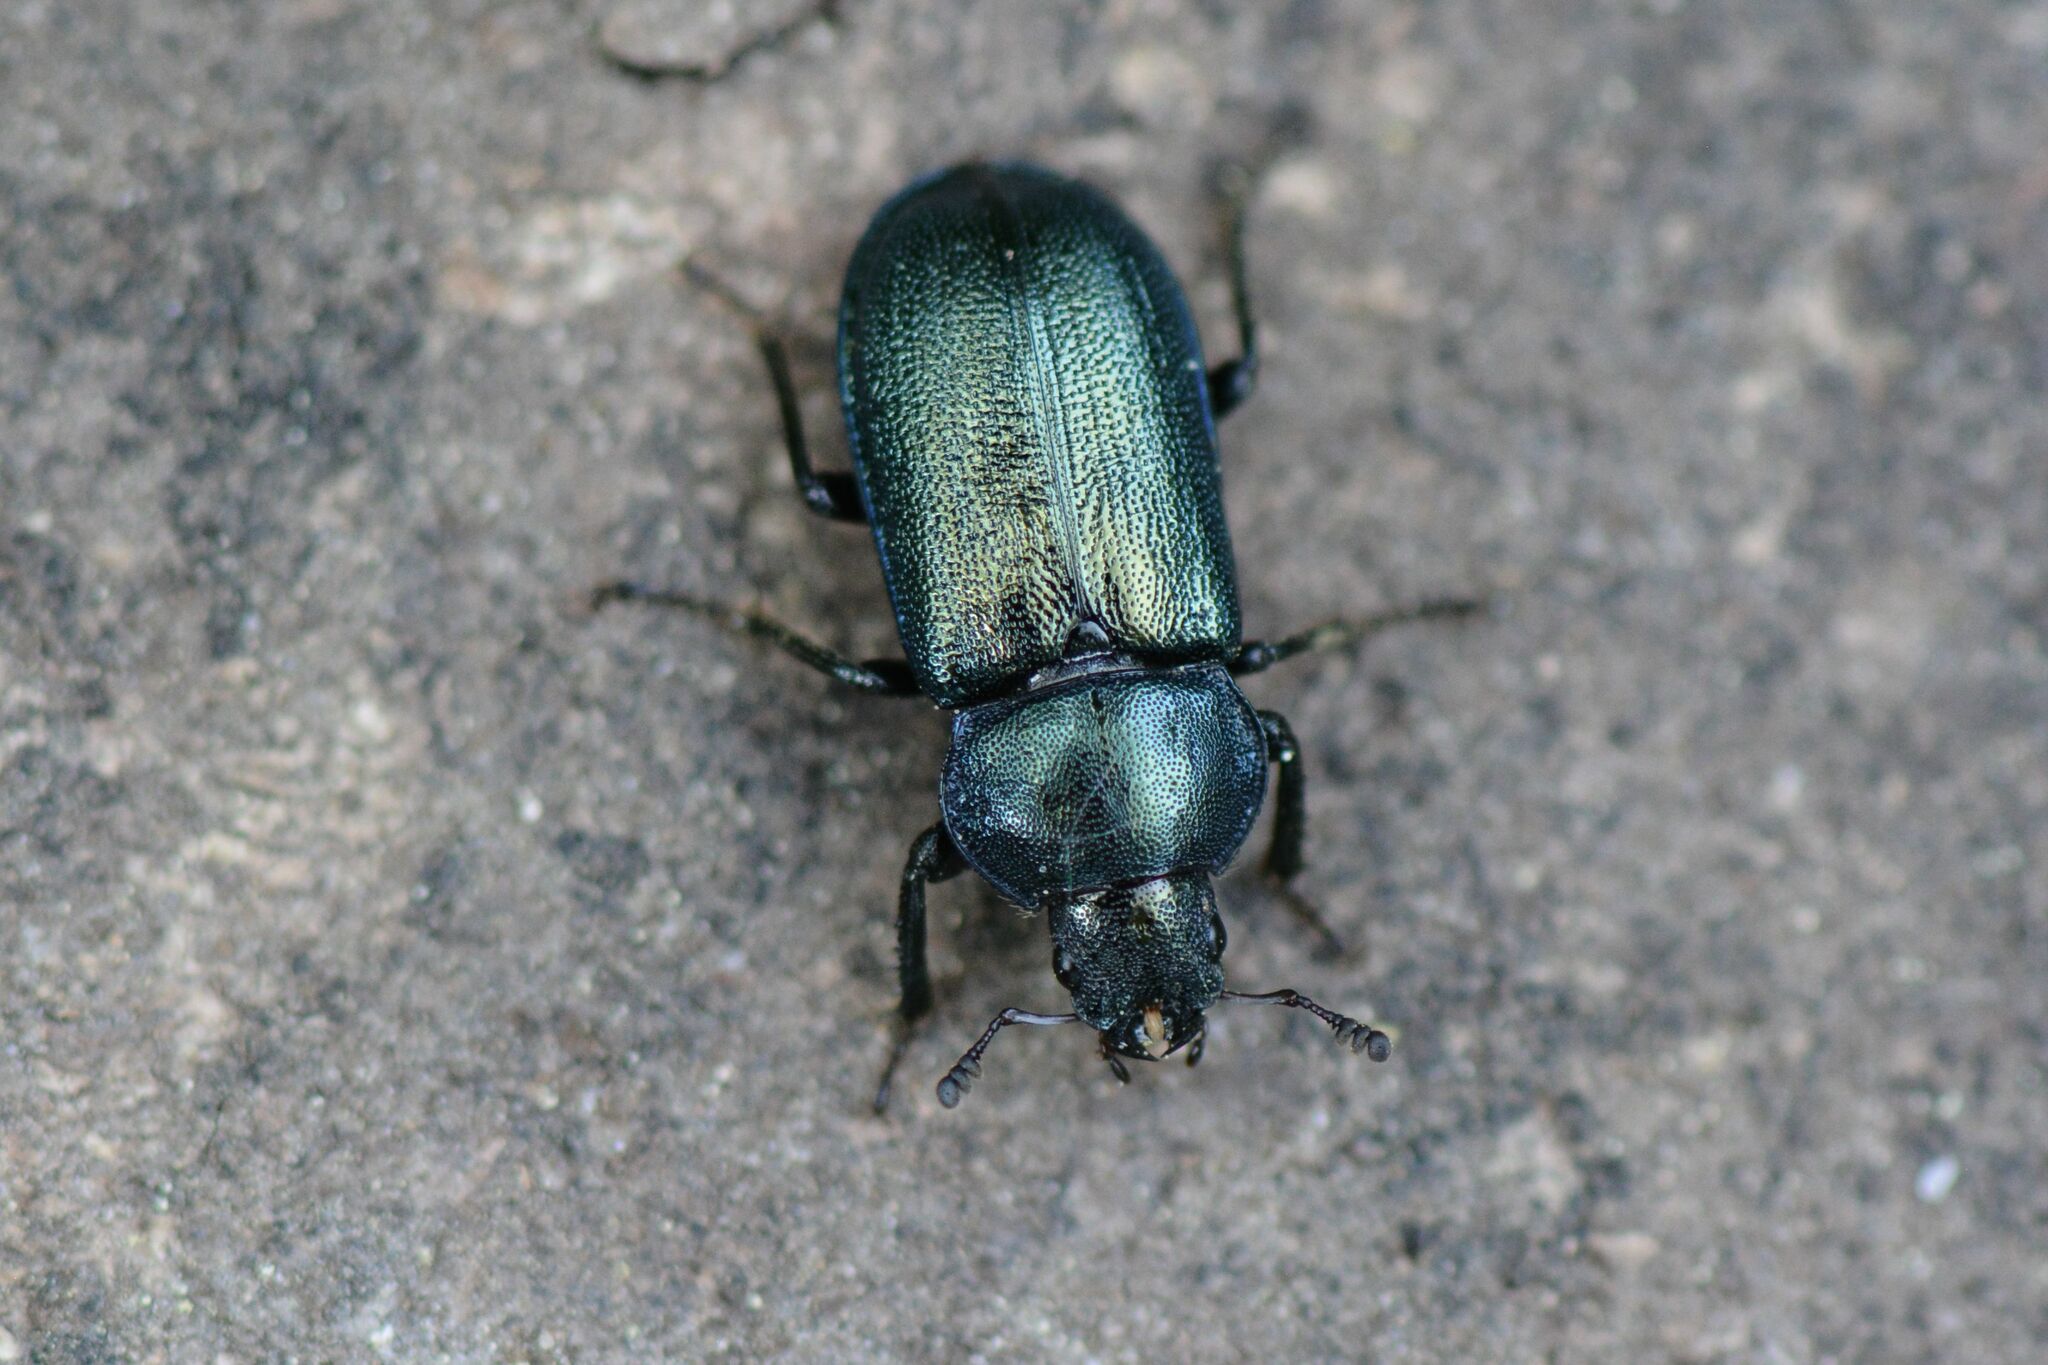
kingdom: Animalia
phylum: Arthropoda
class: Insecta
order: Coleoptera
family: Lucanidae
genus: Platycerus
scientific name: Platycerus caraboides
